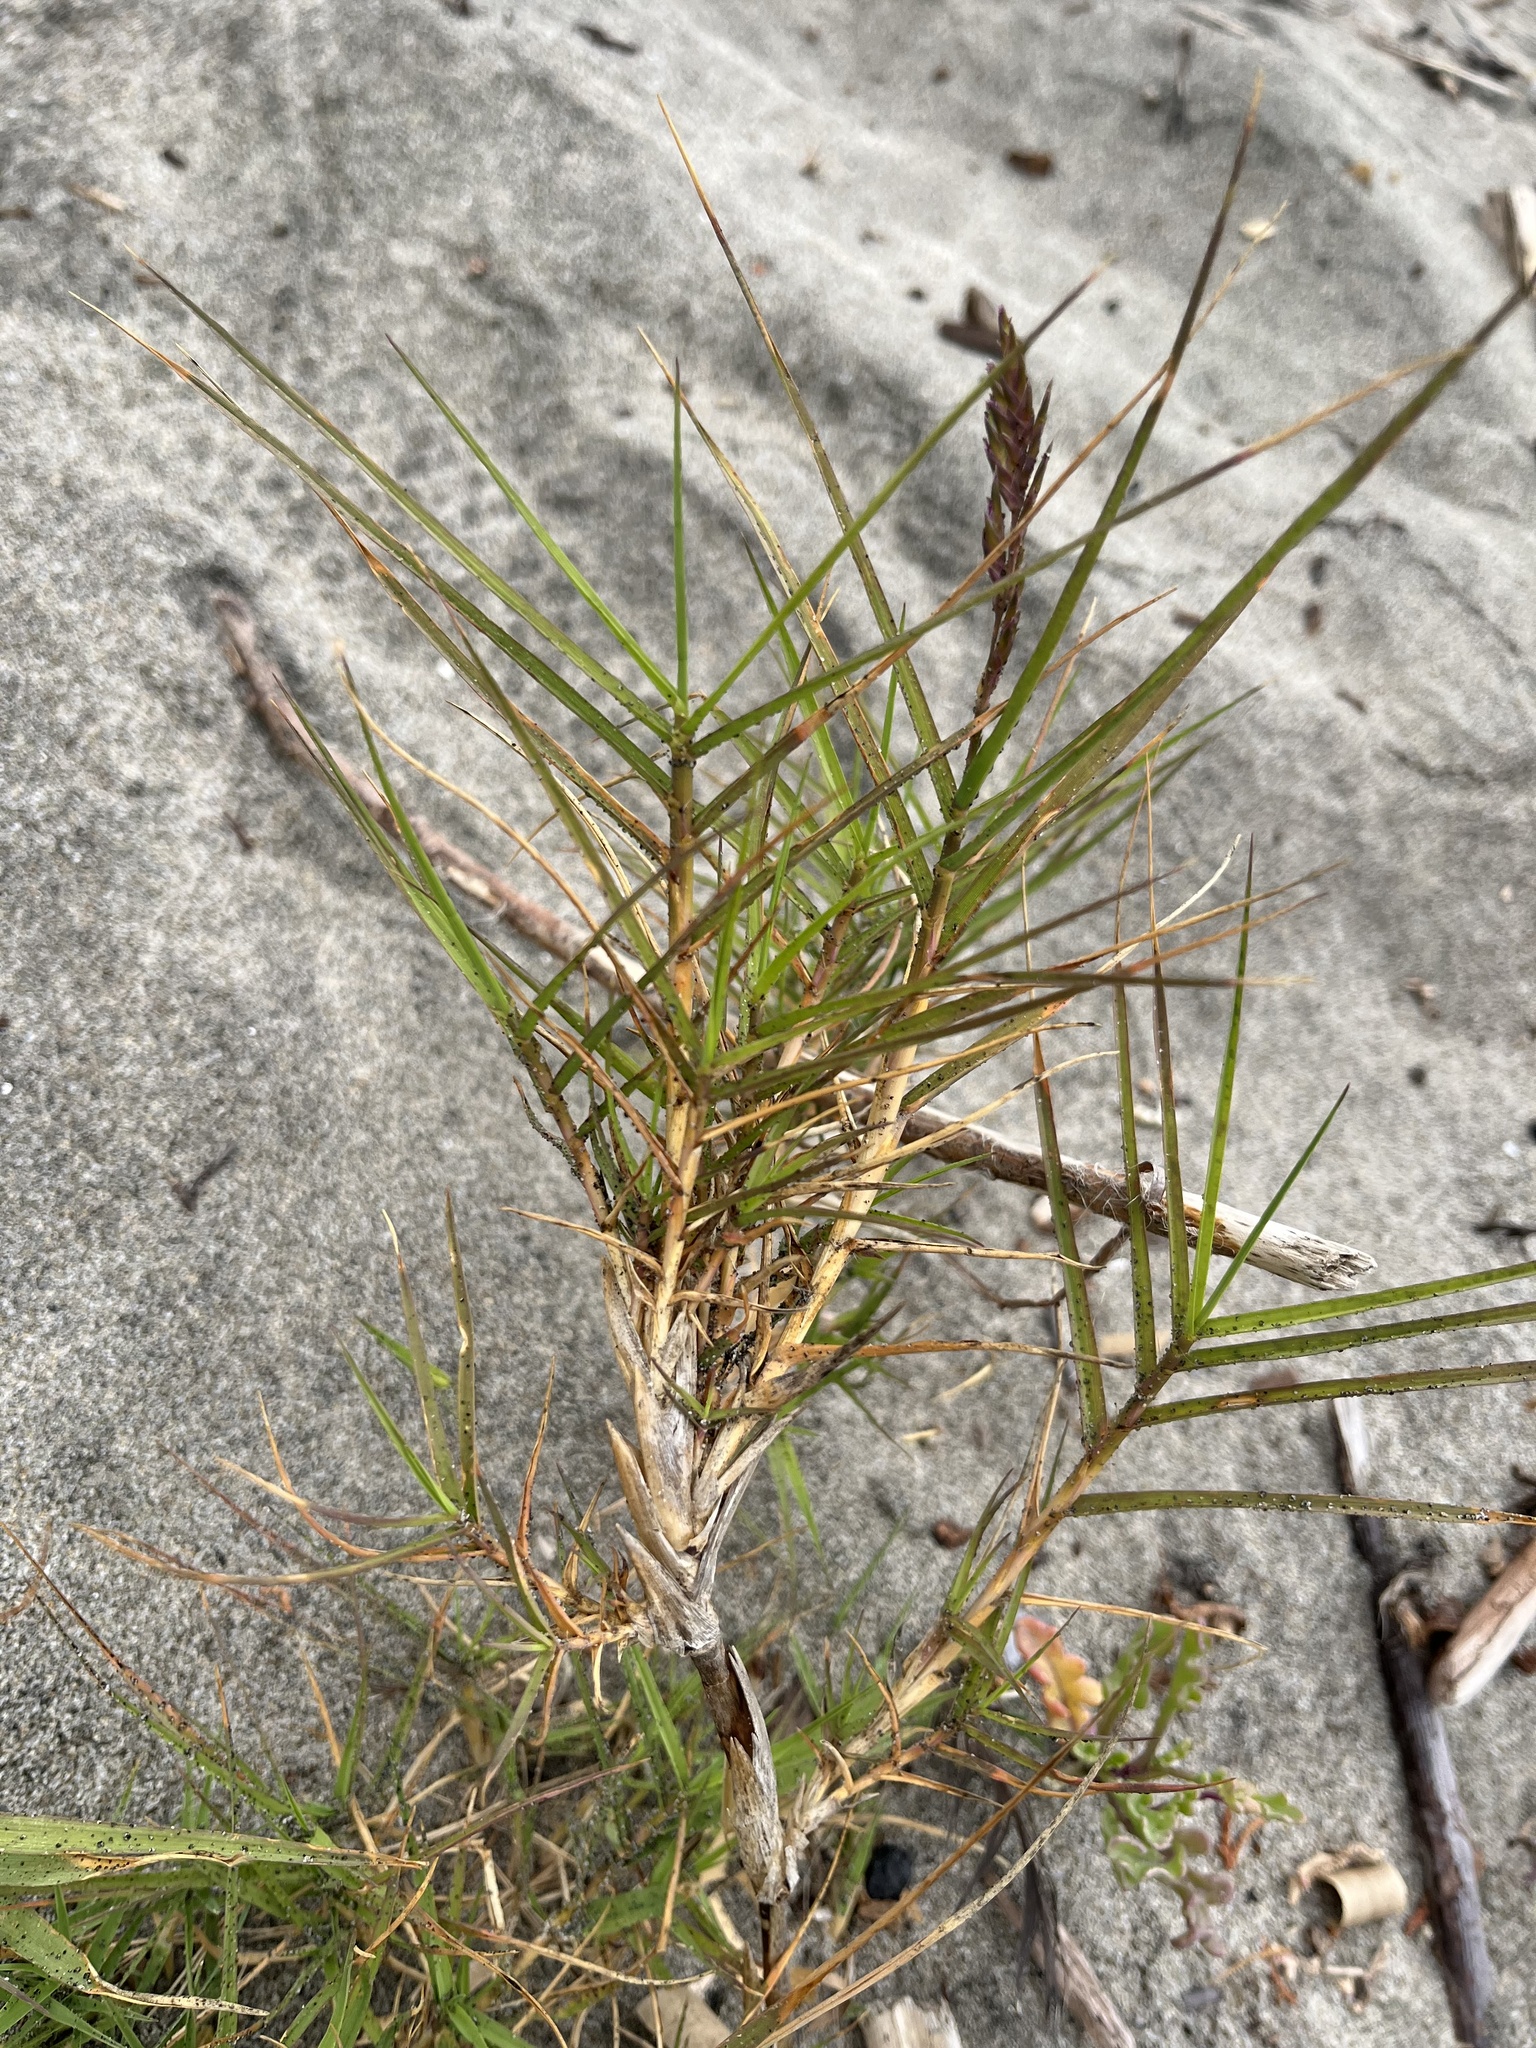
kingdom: Plantae
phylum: Tracheophyta
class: Liliopsida
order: Poales
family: Poaceae
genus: Distichlis
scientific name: Distichlis spicata
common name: Saltgrass
